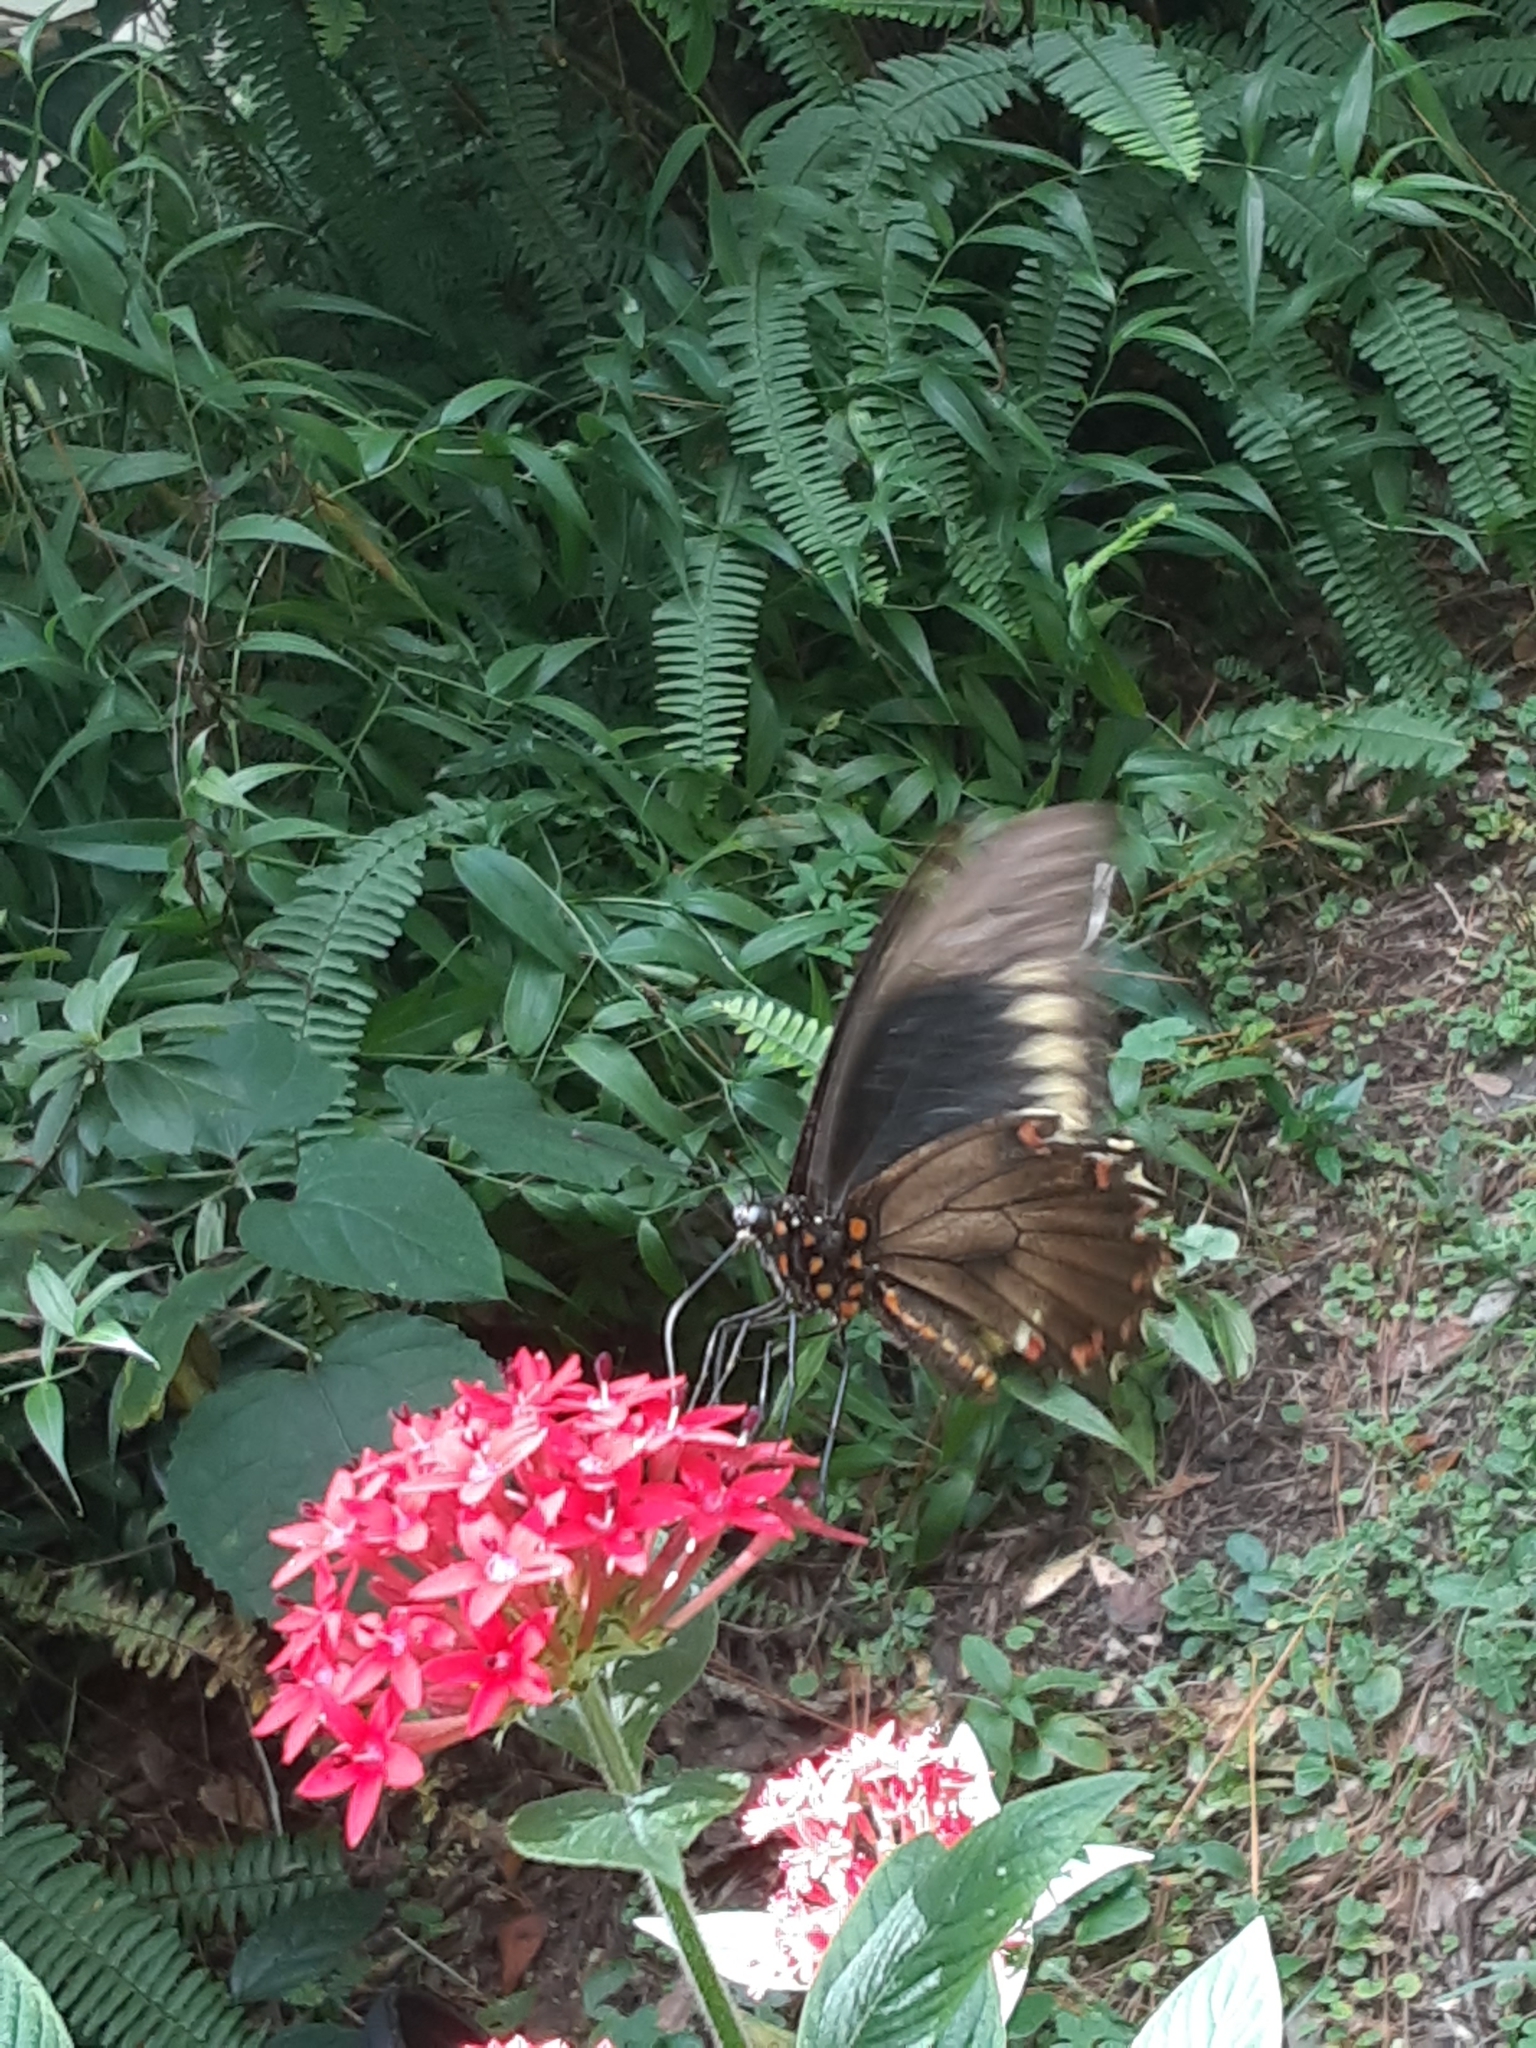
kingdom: Animalia
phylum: Arthropoda
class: Insecta
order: Lepidoptera
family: Papilionidae
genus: Battus
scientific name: Battus polydamas
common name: Polydamas swallowtail
